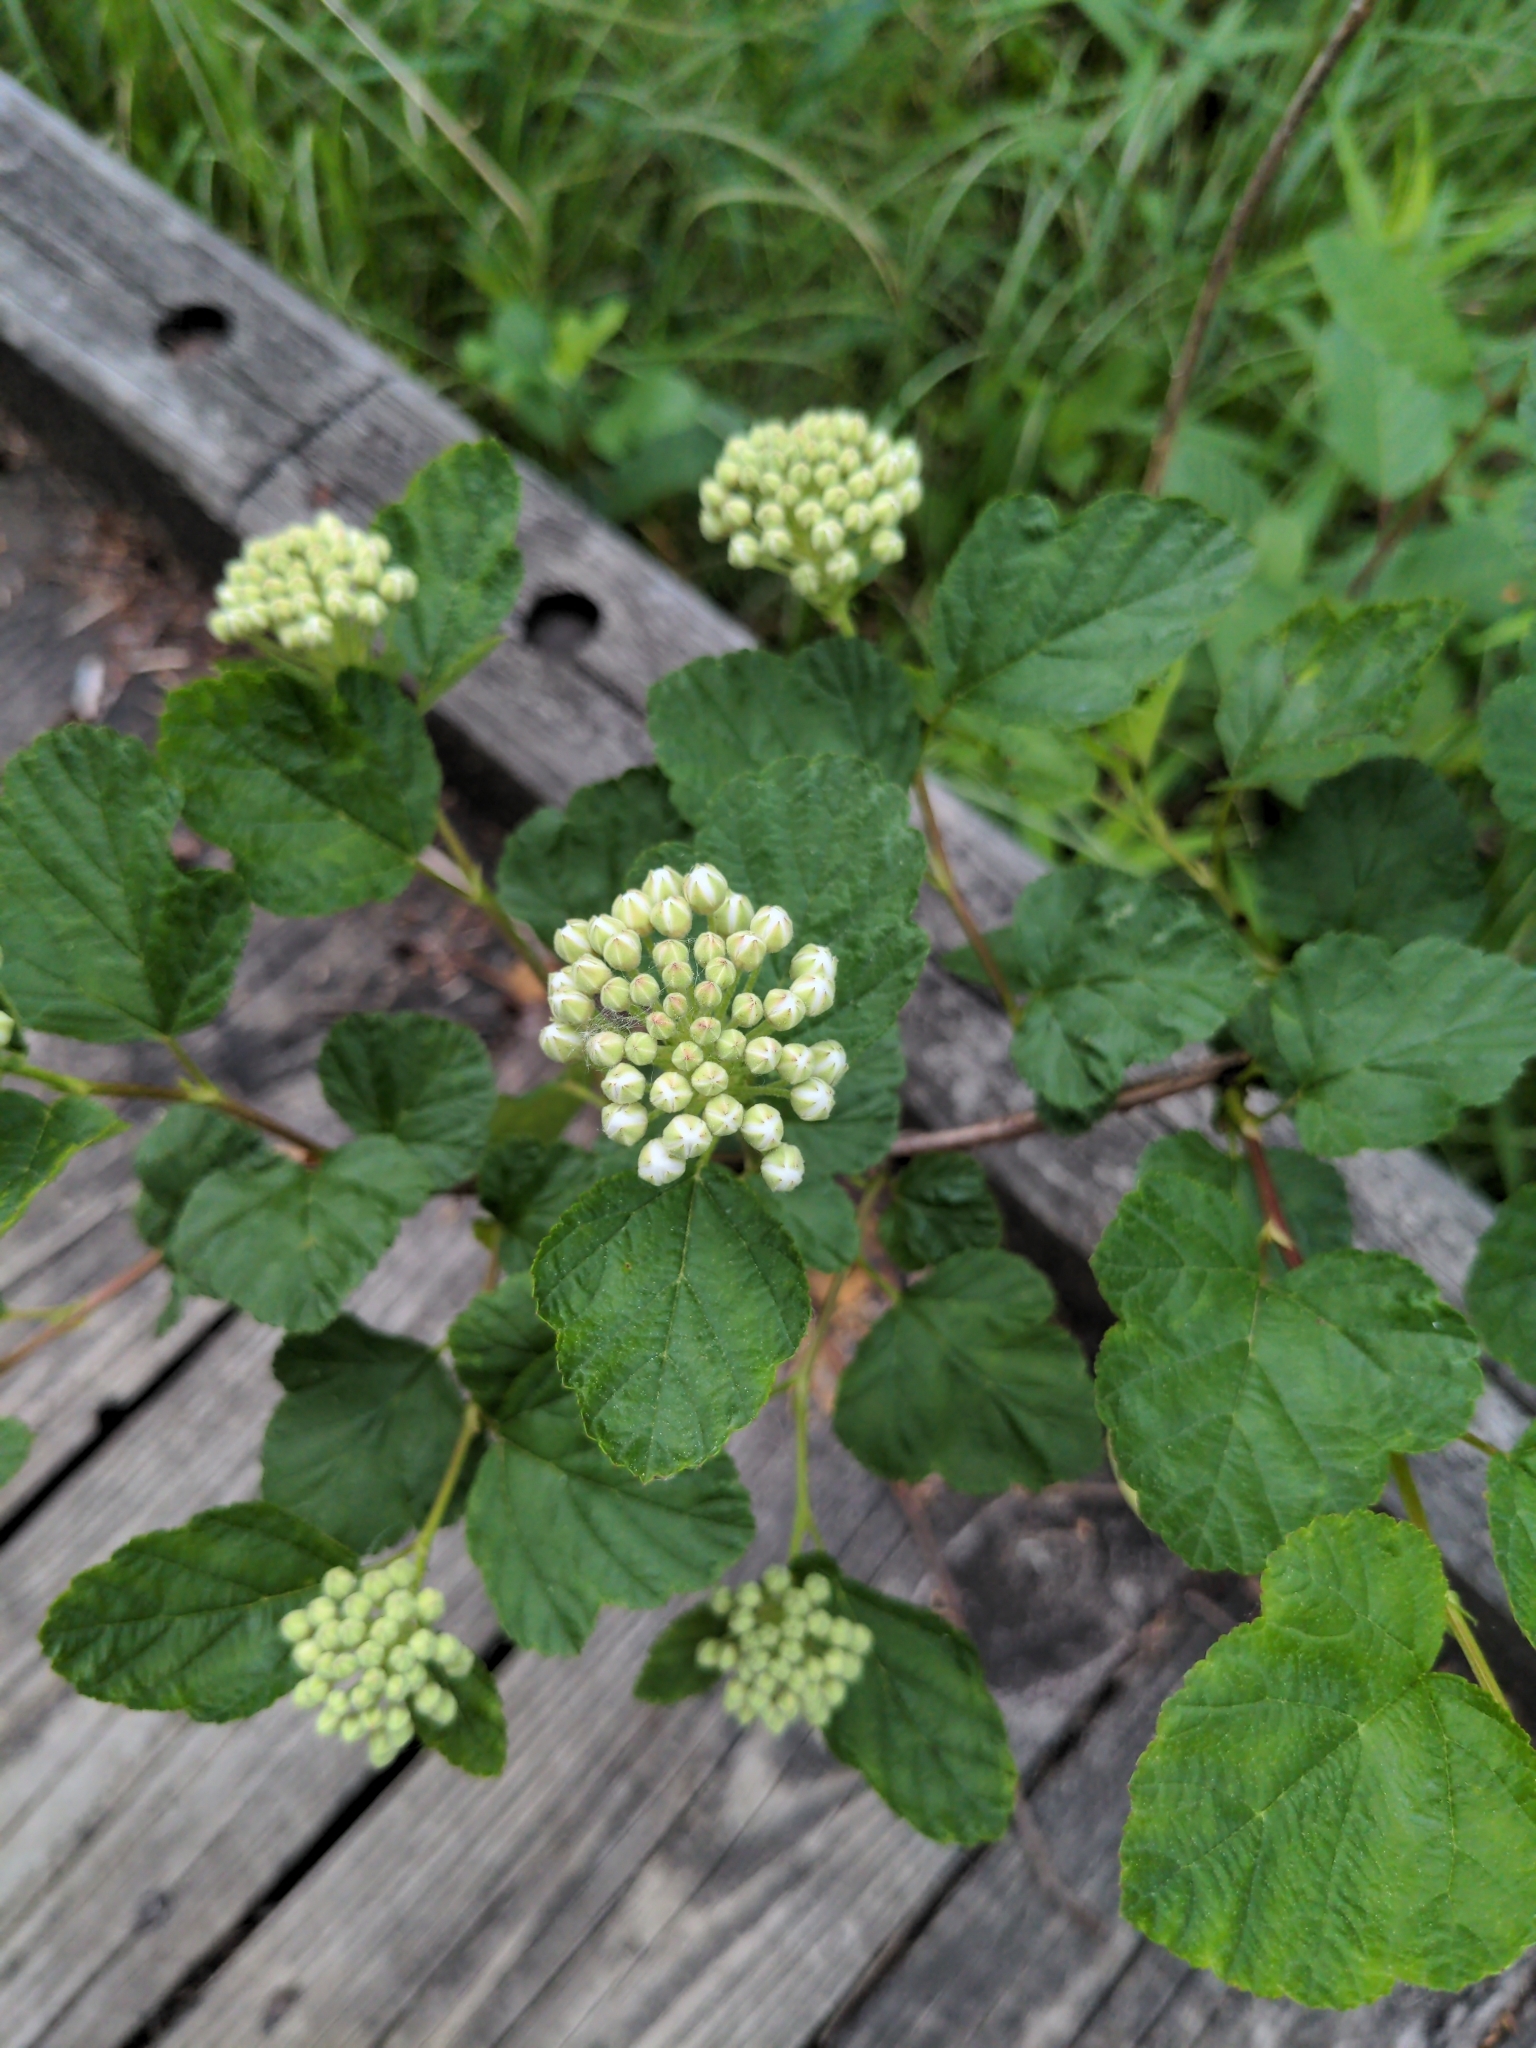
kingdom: Plantae
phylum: Tracheophyta
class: Magnoliopsida
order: Rosales
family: Rosaceae
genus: Physocarpus
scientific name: Physocarpus opulifolius
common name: Ninebark
